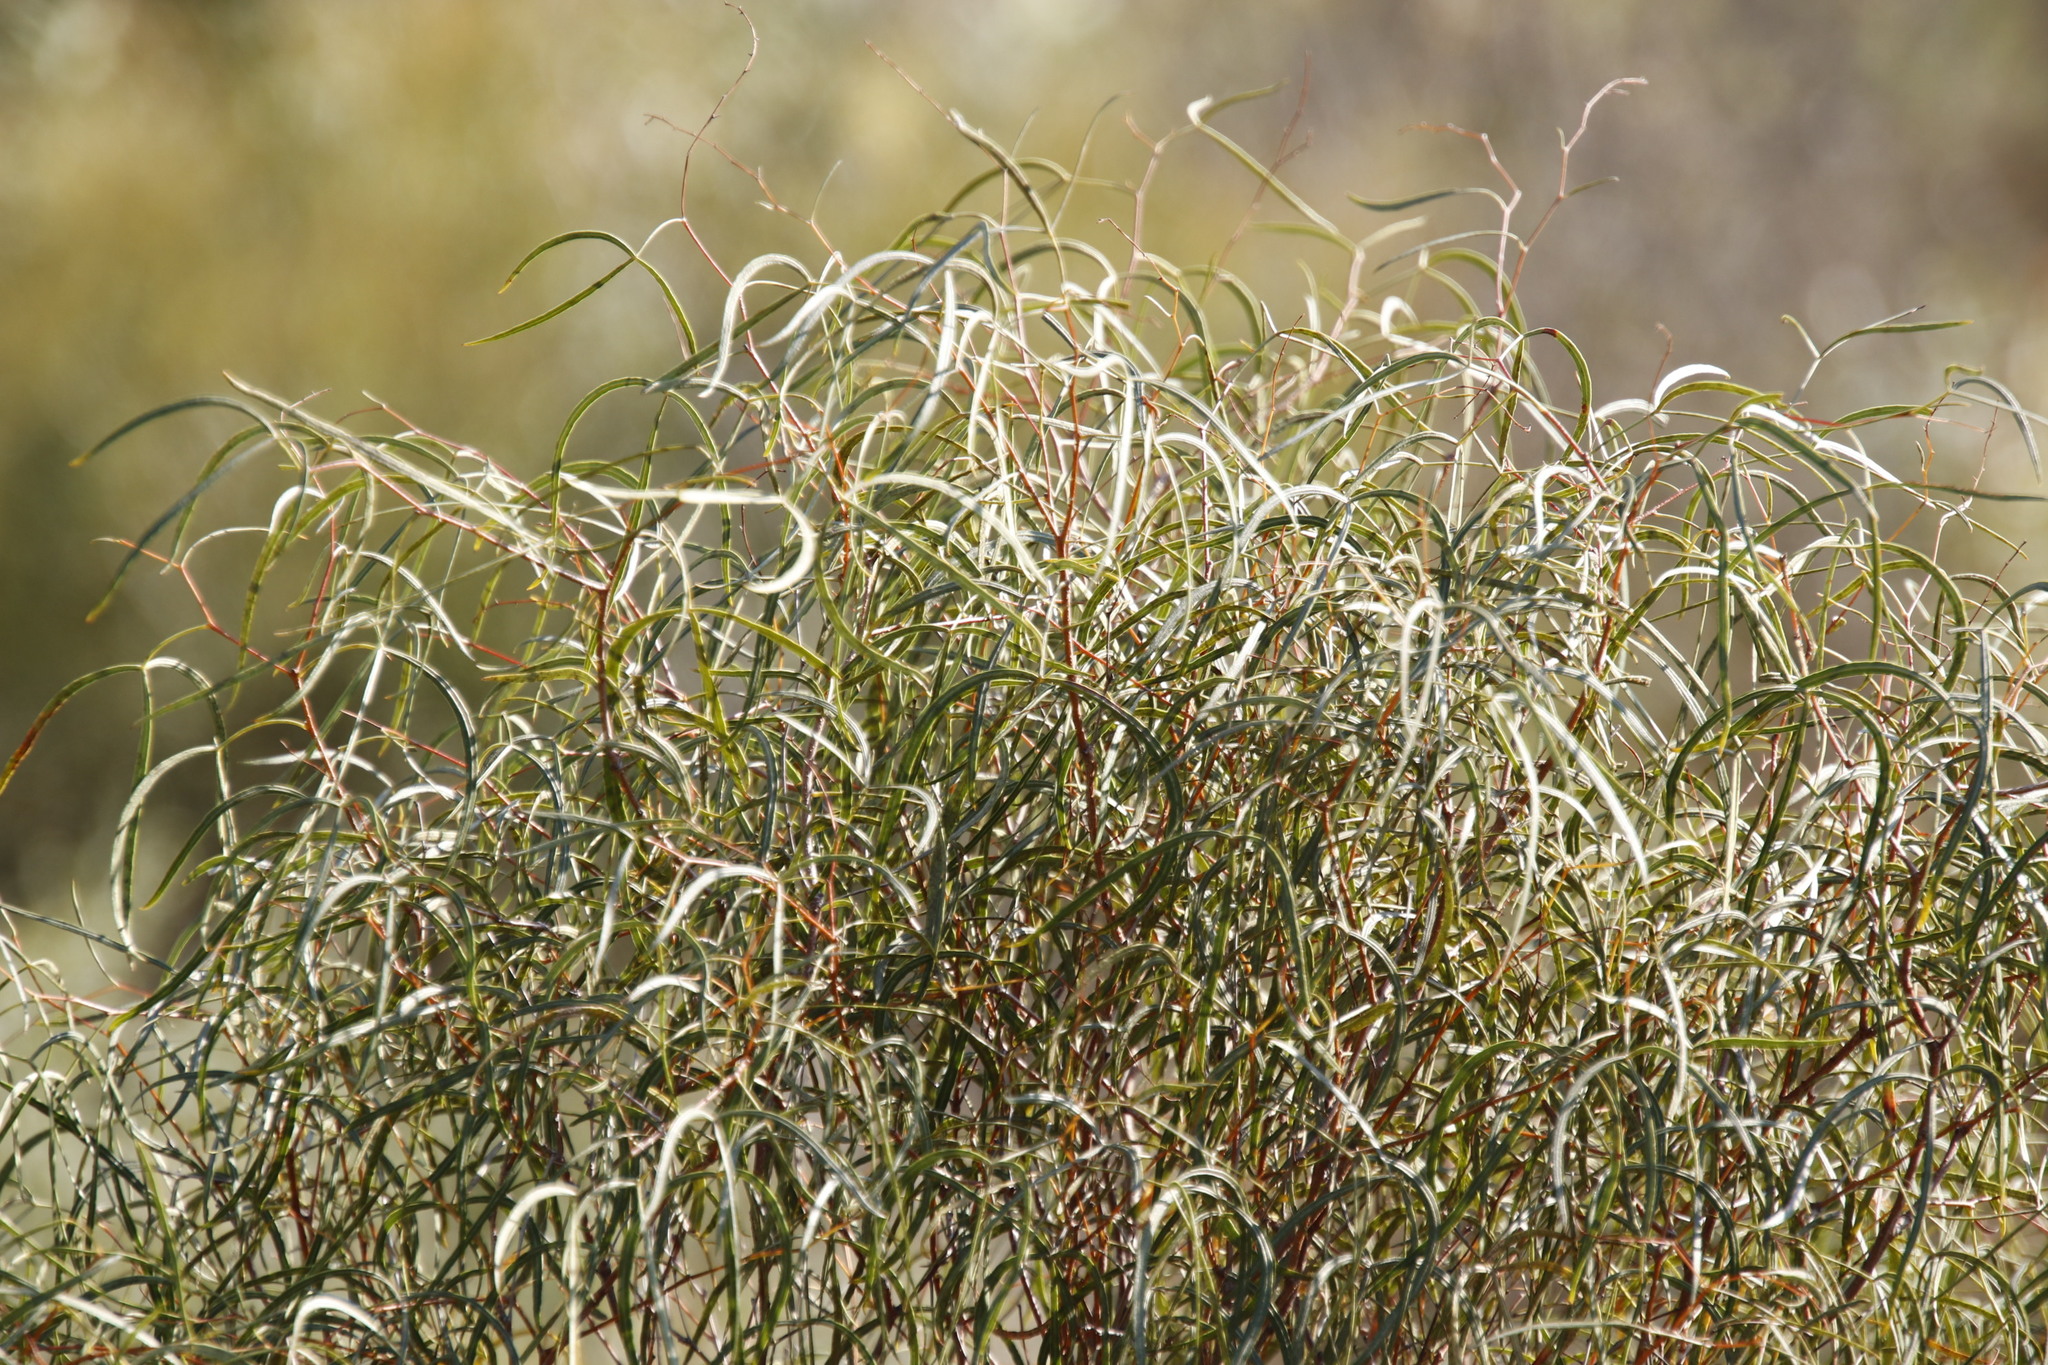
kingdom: Plantae
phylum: Tracheophyta
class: Magnoliopsida
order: Sapindales
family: Anacardiaceae
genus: Searsia
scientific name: Searsia keetii
